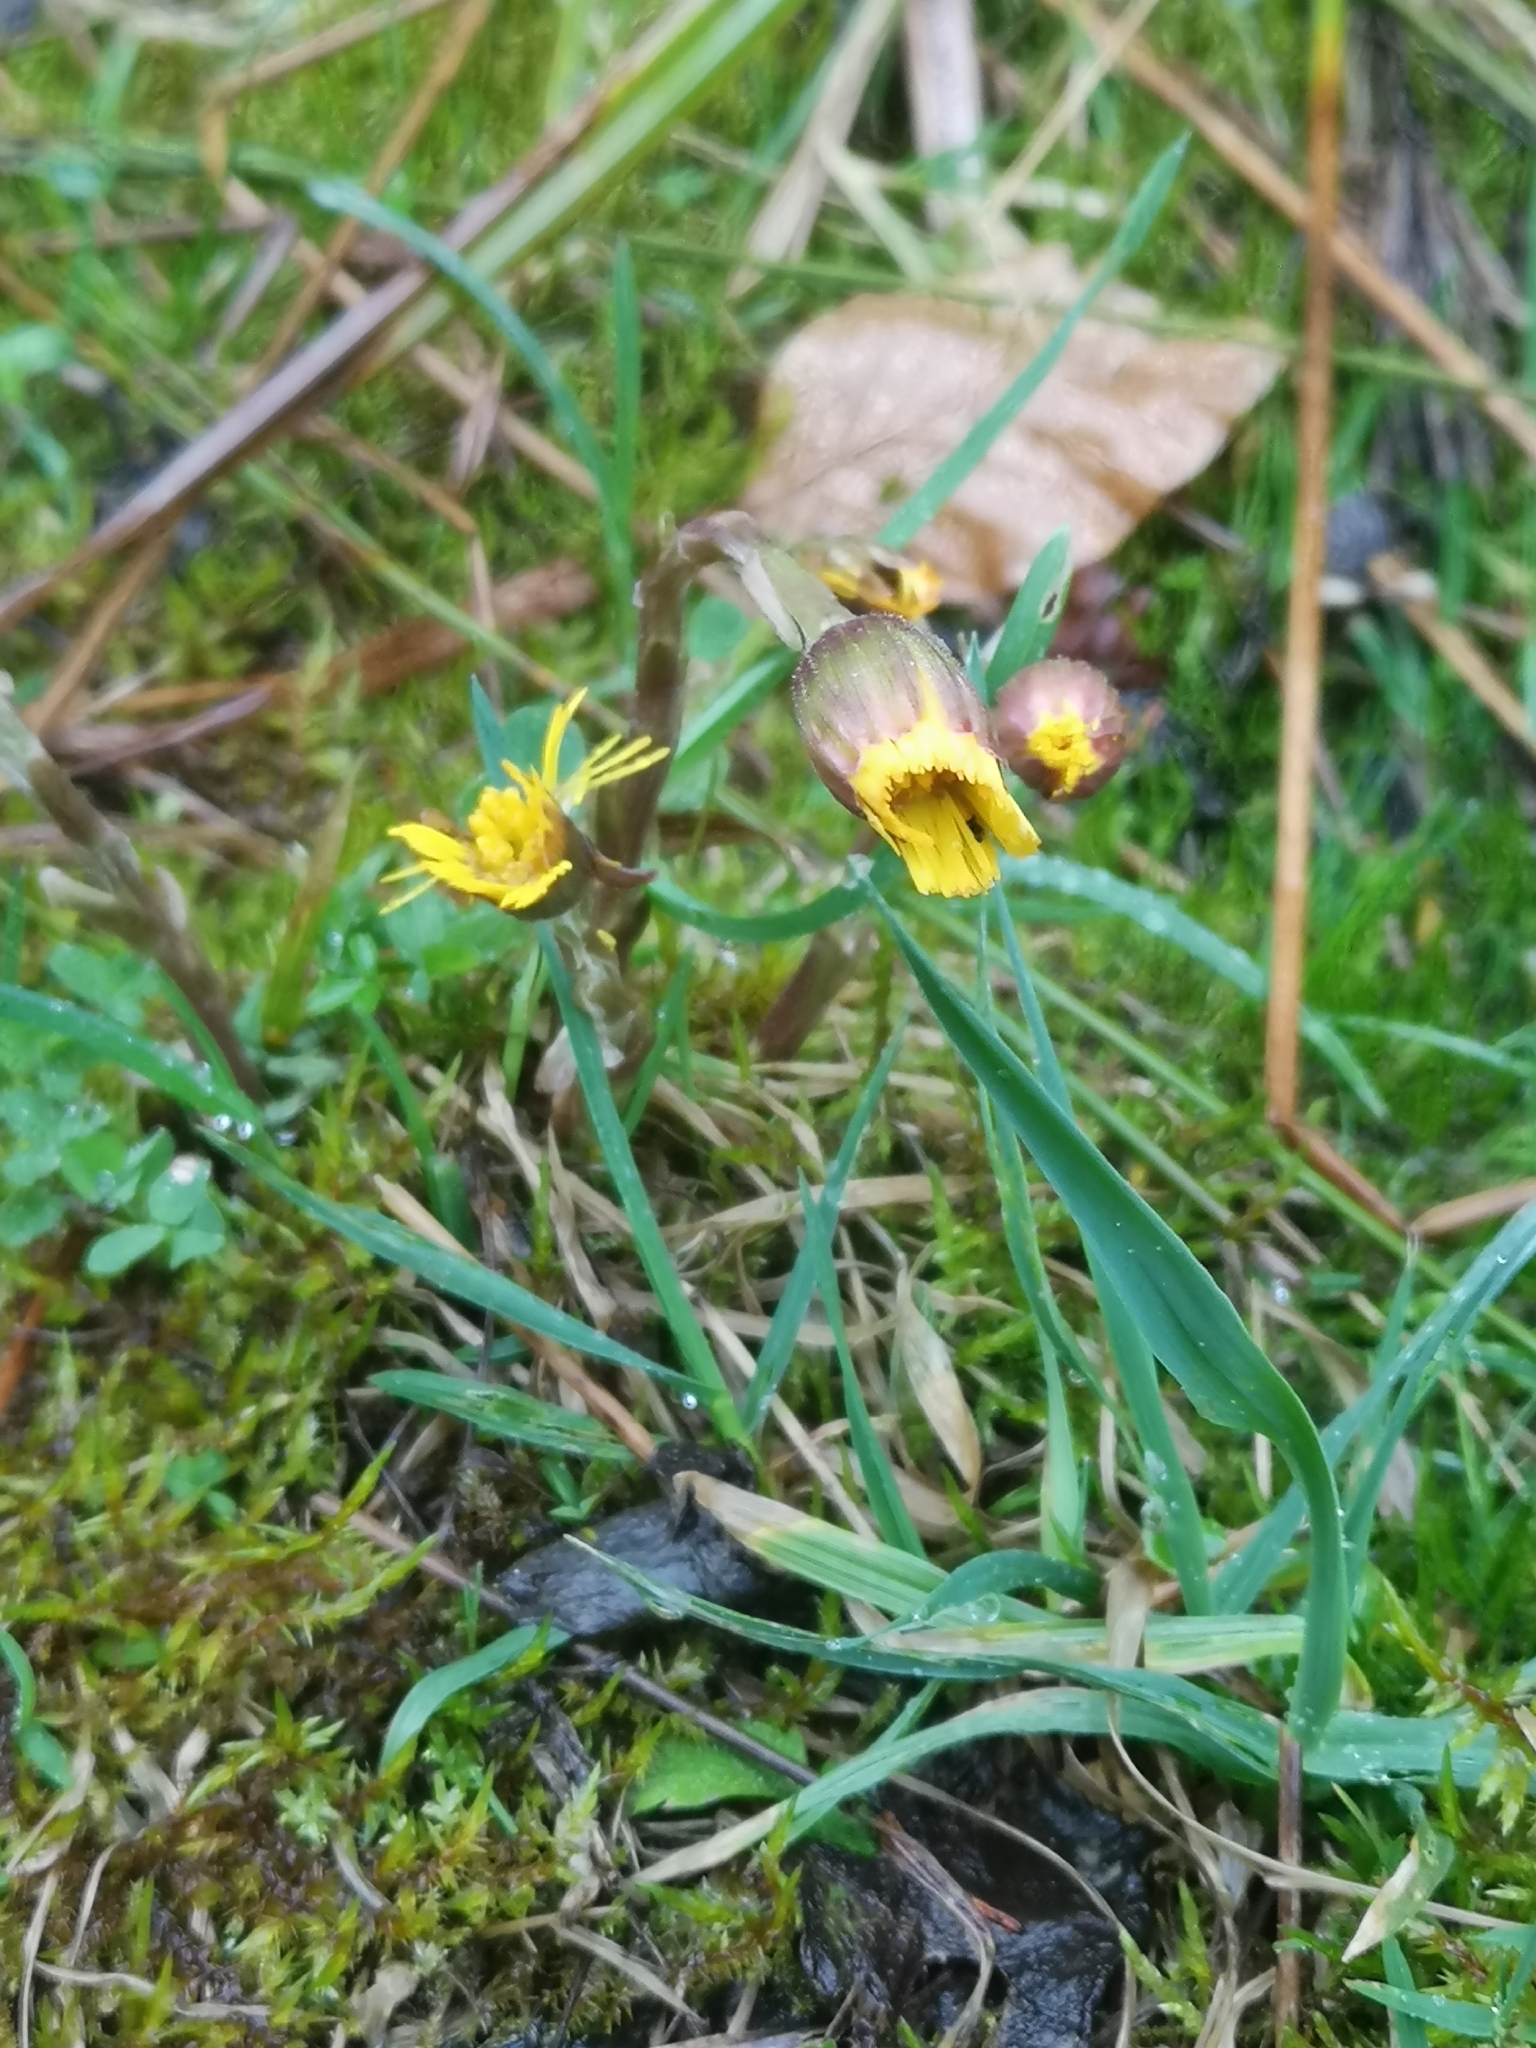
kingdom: Plantae
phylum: Tracheophyta
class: Magnoliopsida
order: Asterales
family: Asteraceae
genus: Tussilago
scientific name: Tussilago farfara
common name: Coltsfoot
